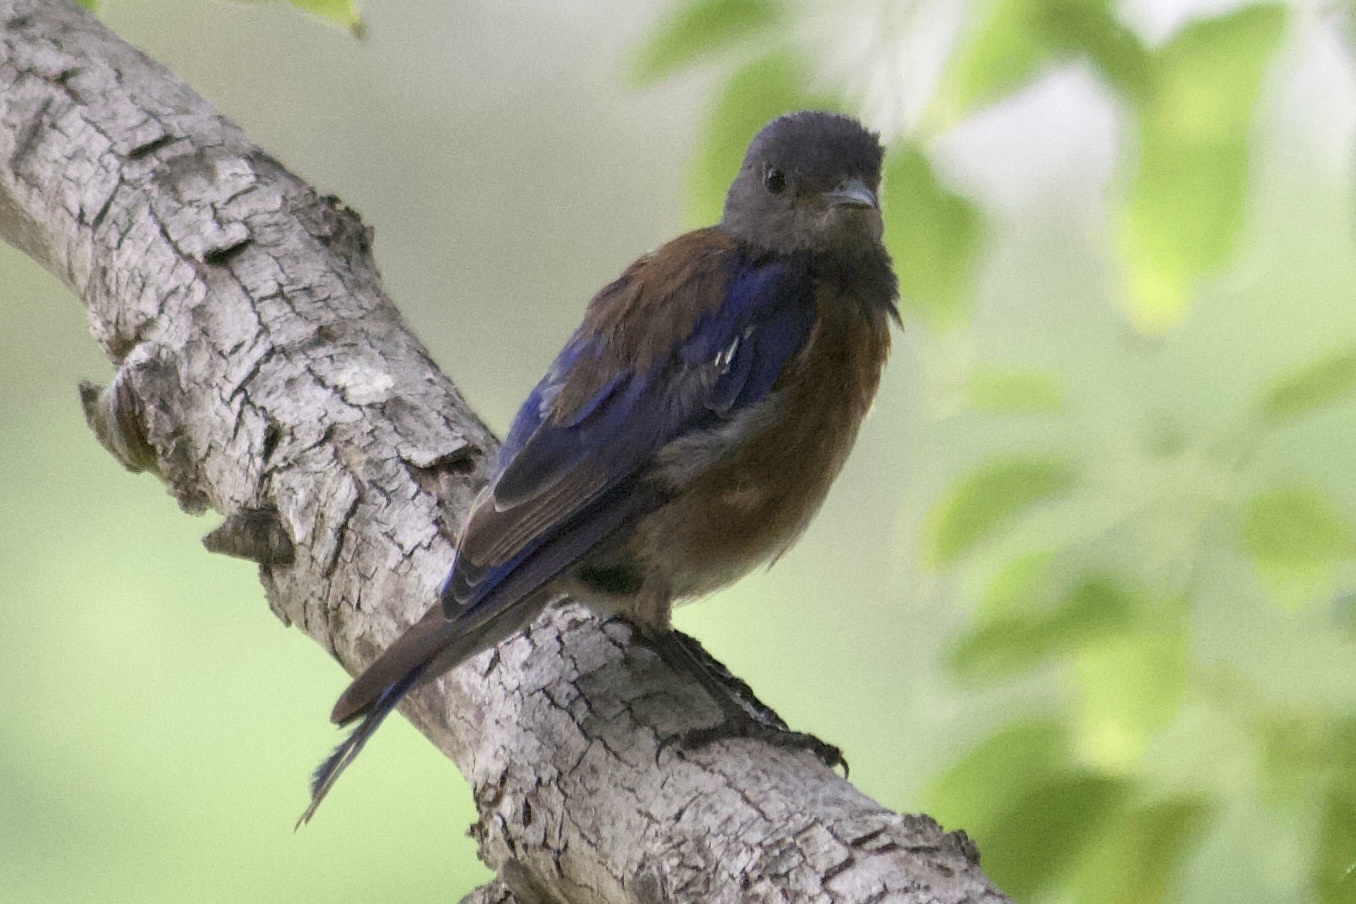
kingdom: Animalia
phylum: Chordata
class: Aves
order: Passeriformes
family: Turdidae
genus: Sialia
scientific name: Sialia mexicana
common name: Western bluebird
